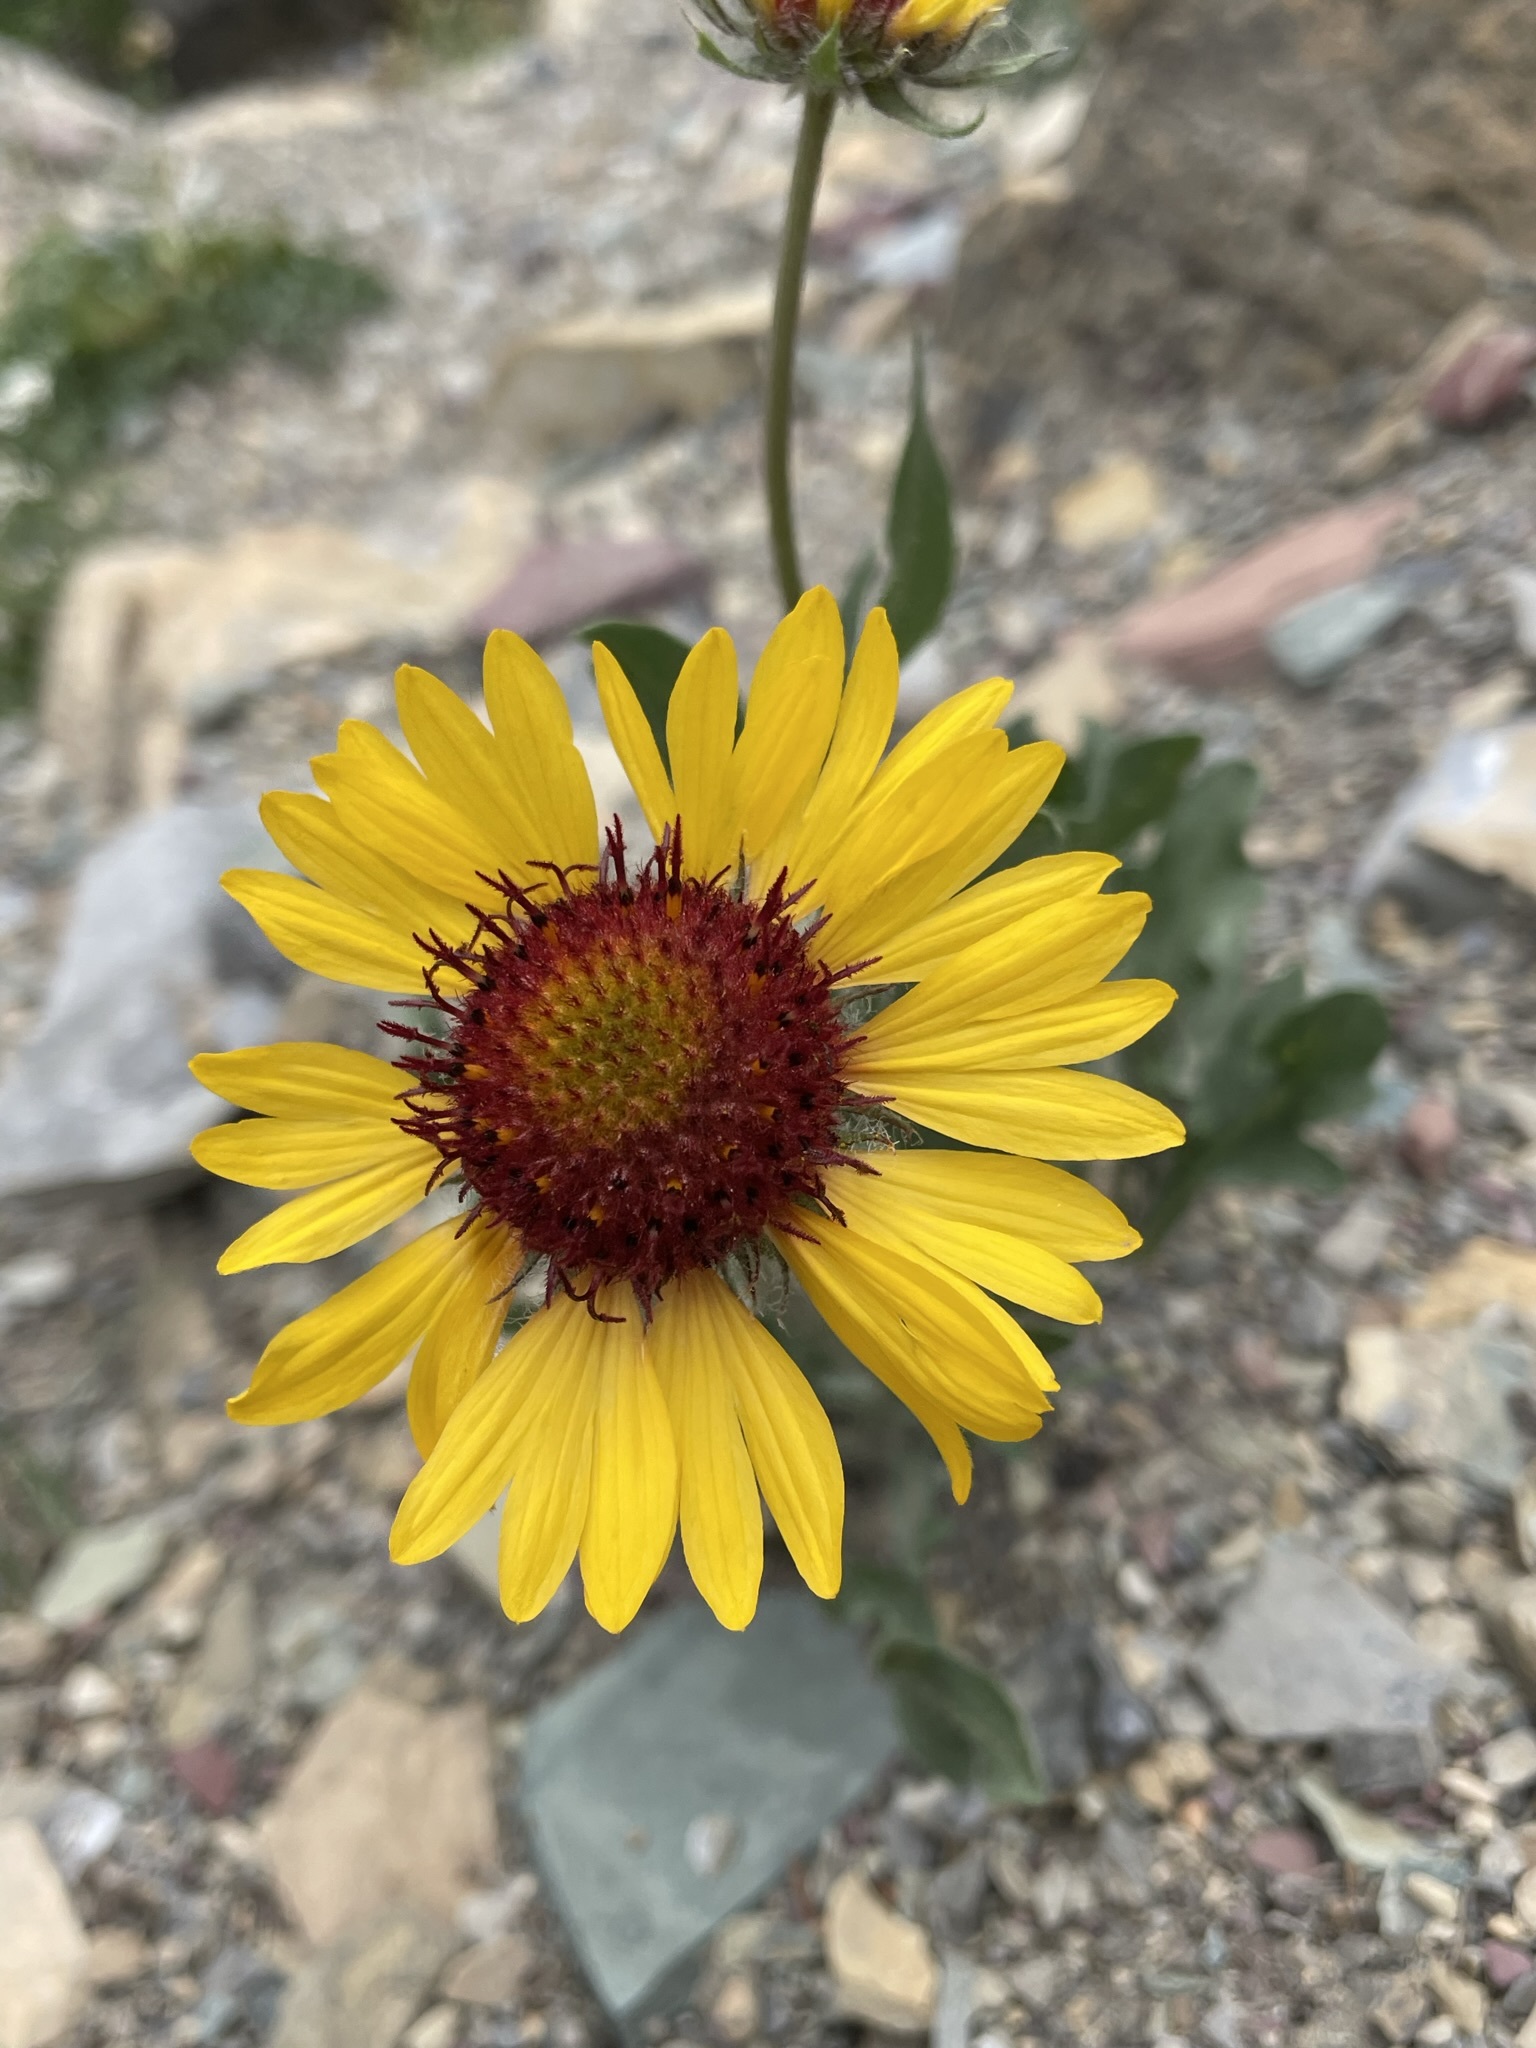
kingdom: Plantae
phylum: Tracheophyta
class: Magnoliopsida
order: Asterales
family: Asteraceae
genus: Gaillardia
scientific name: Gaillardia aristata
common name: Blanket-flower
